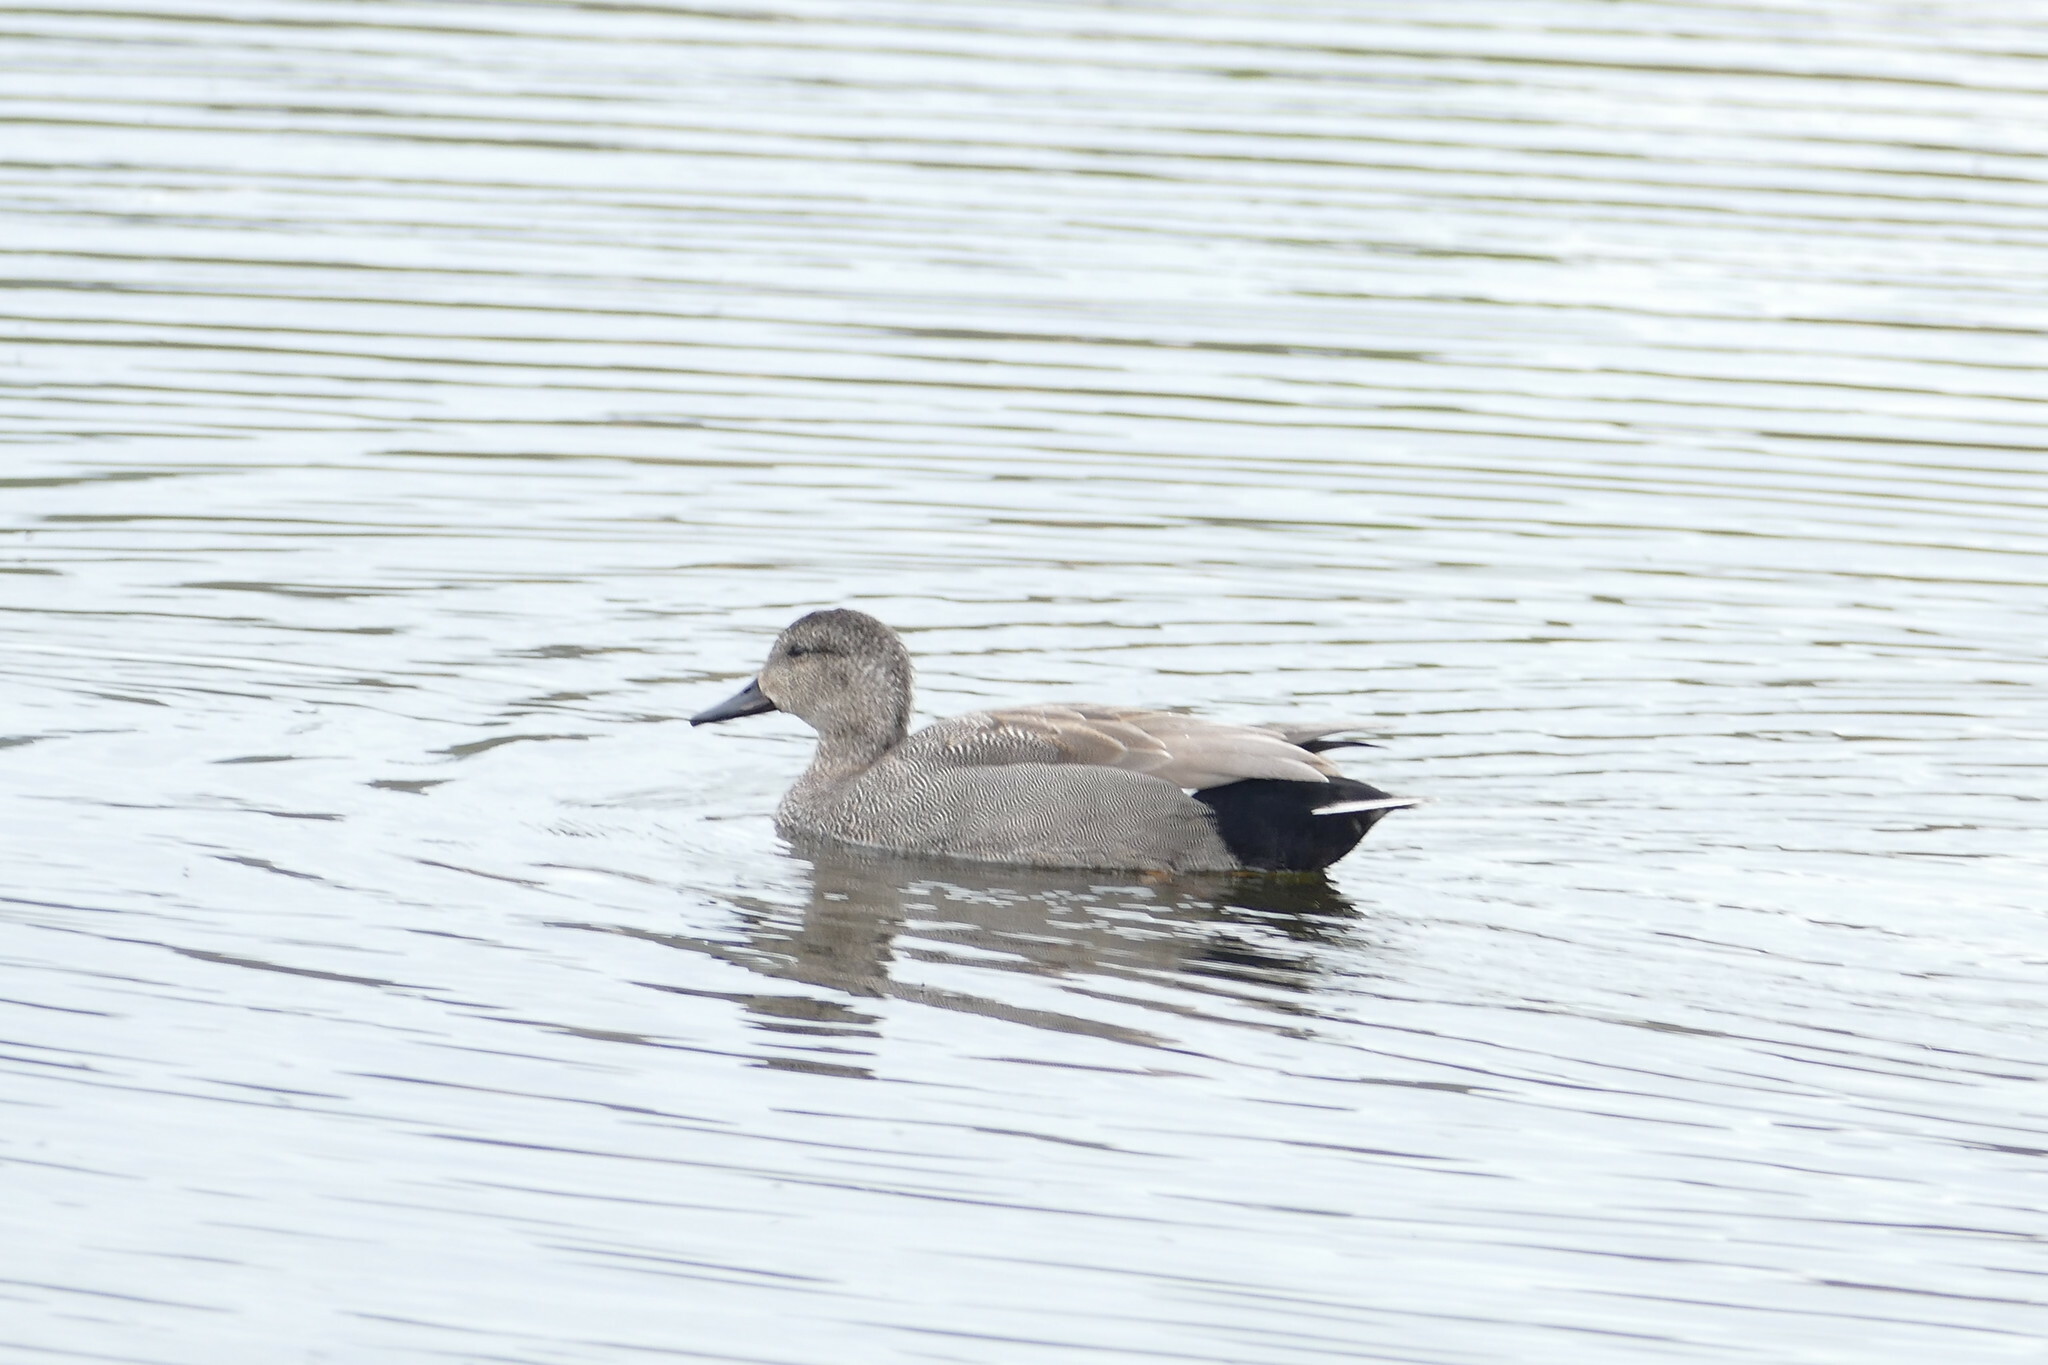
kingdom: Animalia
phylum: Chordata
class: Aves
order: Anseriformes
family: Anatidae
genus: Mareca
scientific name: Mareca strepera
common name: Gadwall
